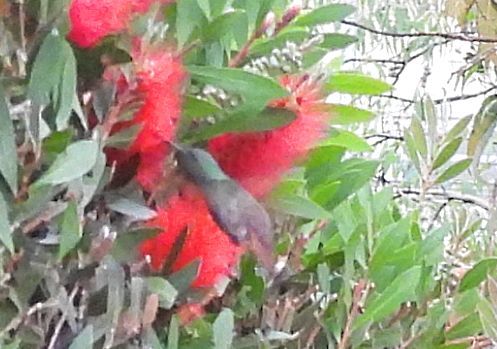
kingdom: Animalia
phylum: Chordata
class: Aves
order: Apodiformes
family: Trochilidae
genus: Saucerottia
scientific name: Saucerottia beryllina
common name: Berylline hummingbird
